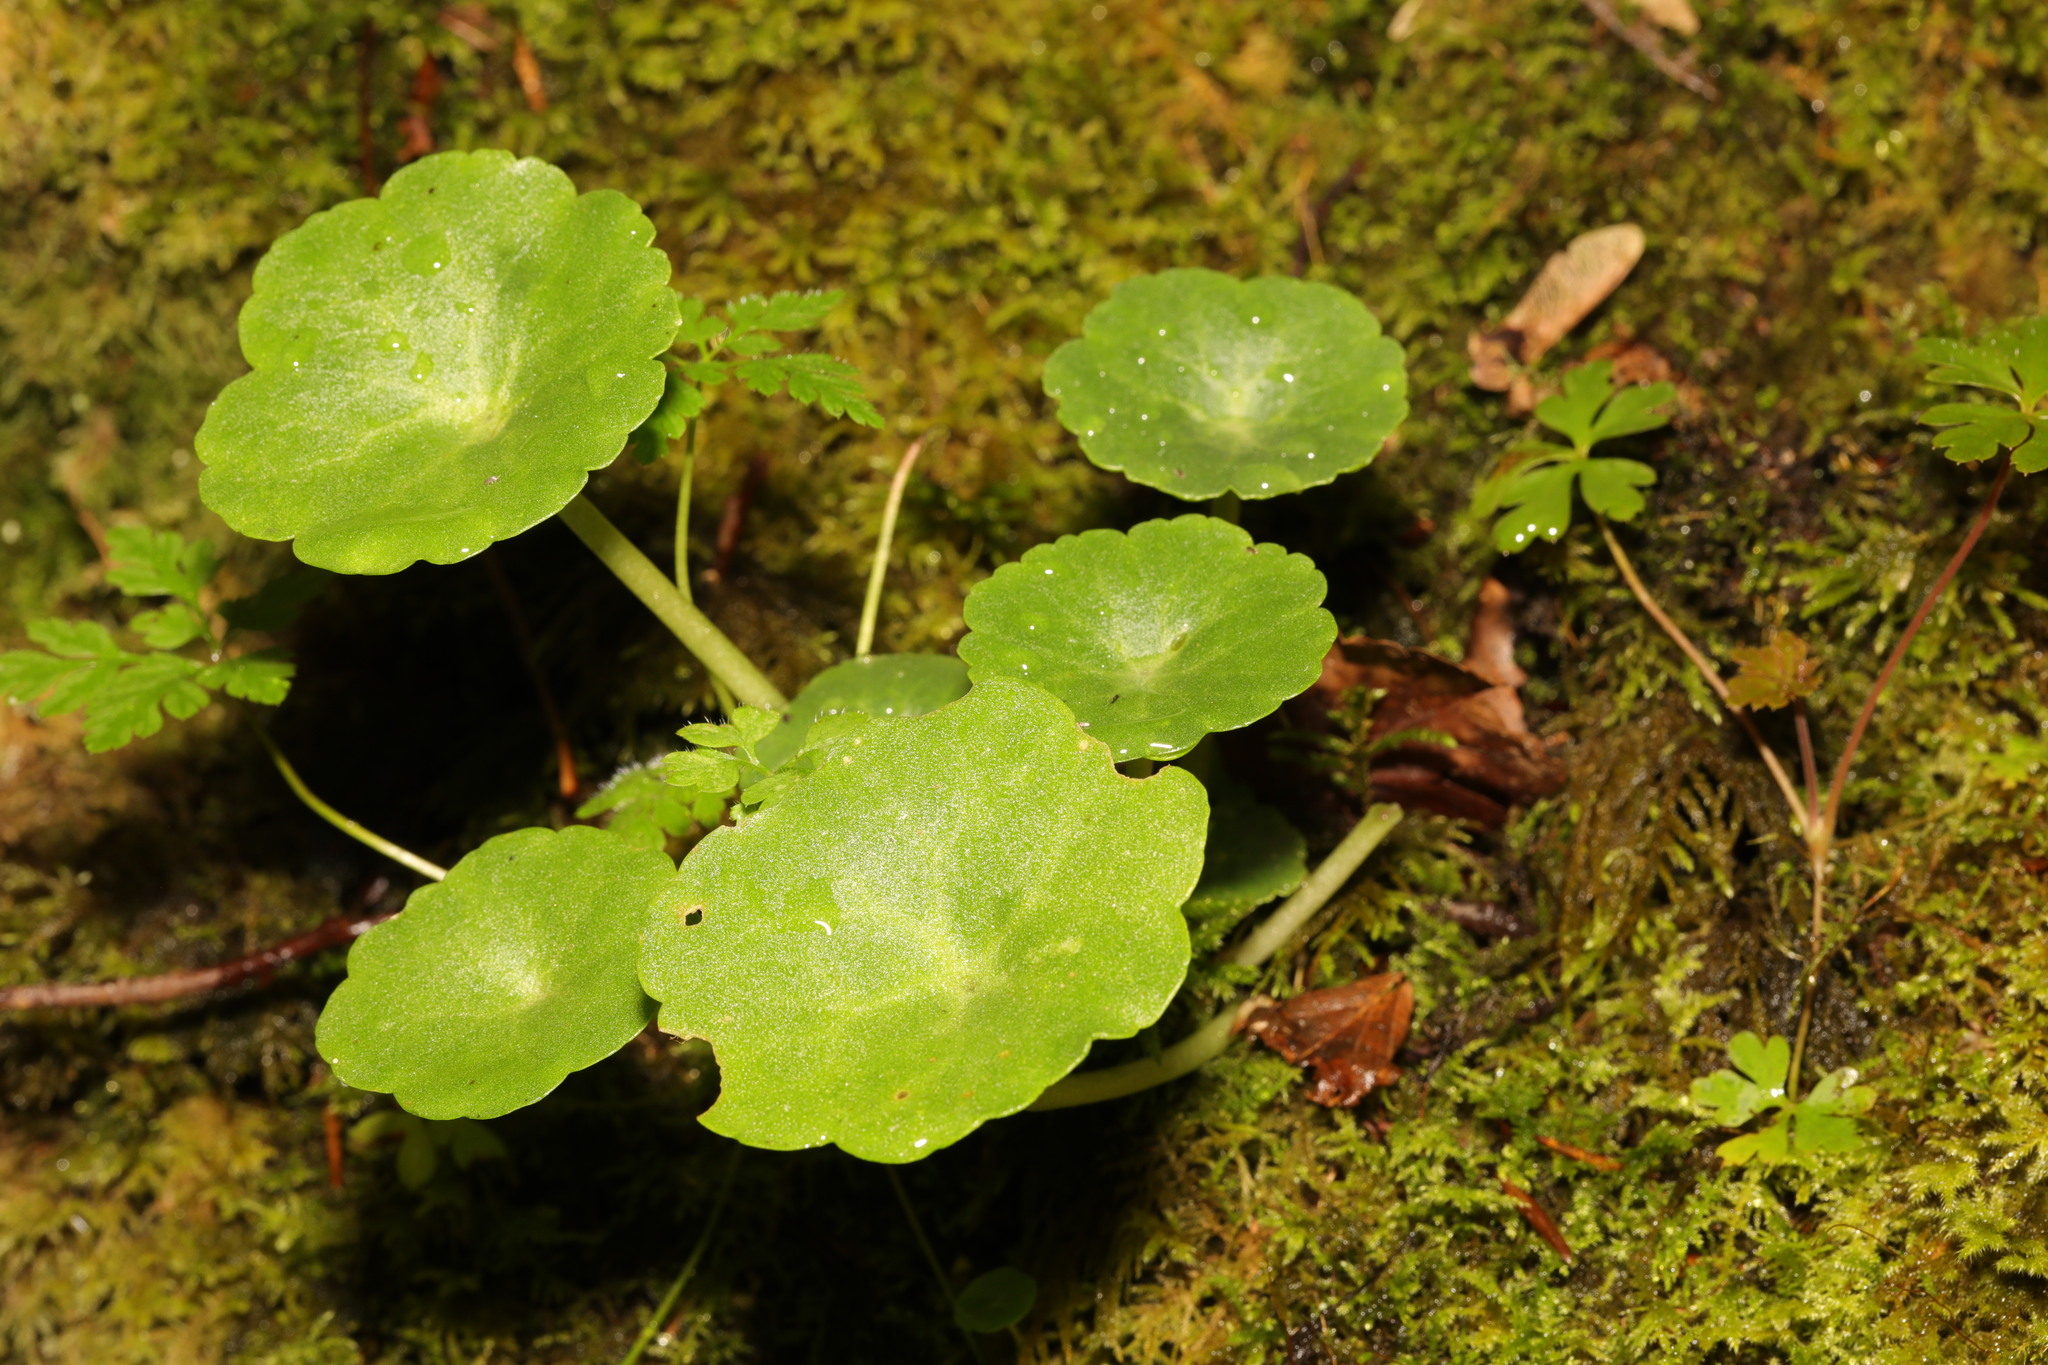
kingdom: Plantae
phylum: Tracheophyta
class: Magnoliopsida
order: Saxifragales
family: Crassulaceae
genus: Umbilicus
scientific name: Umbilicus rupestris
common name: Navelwort
